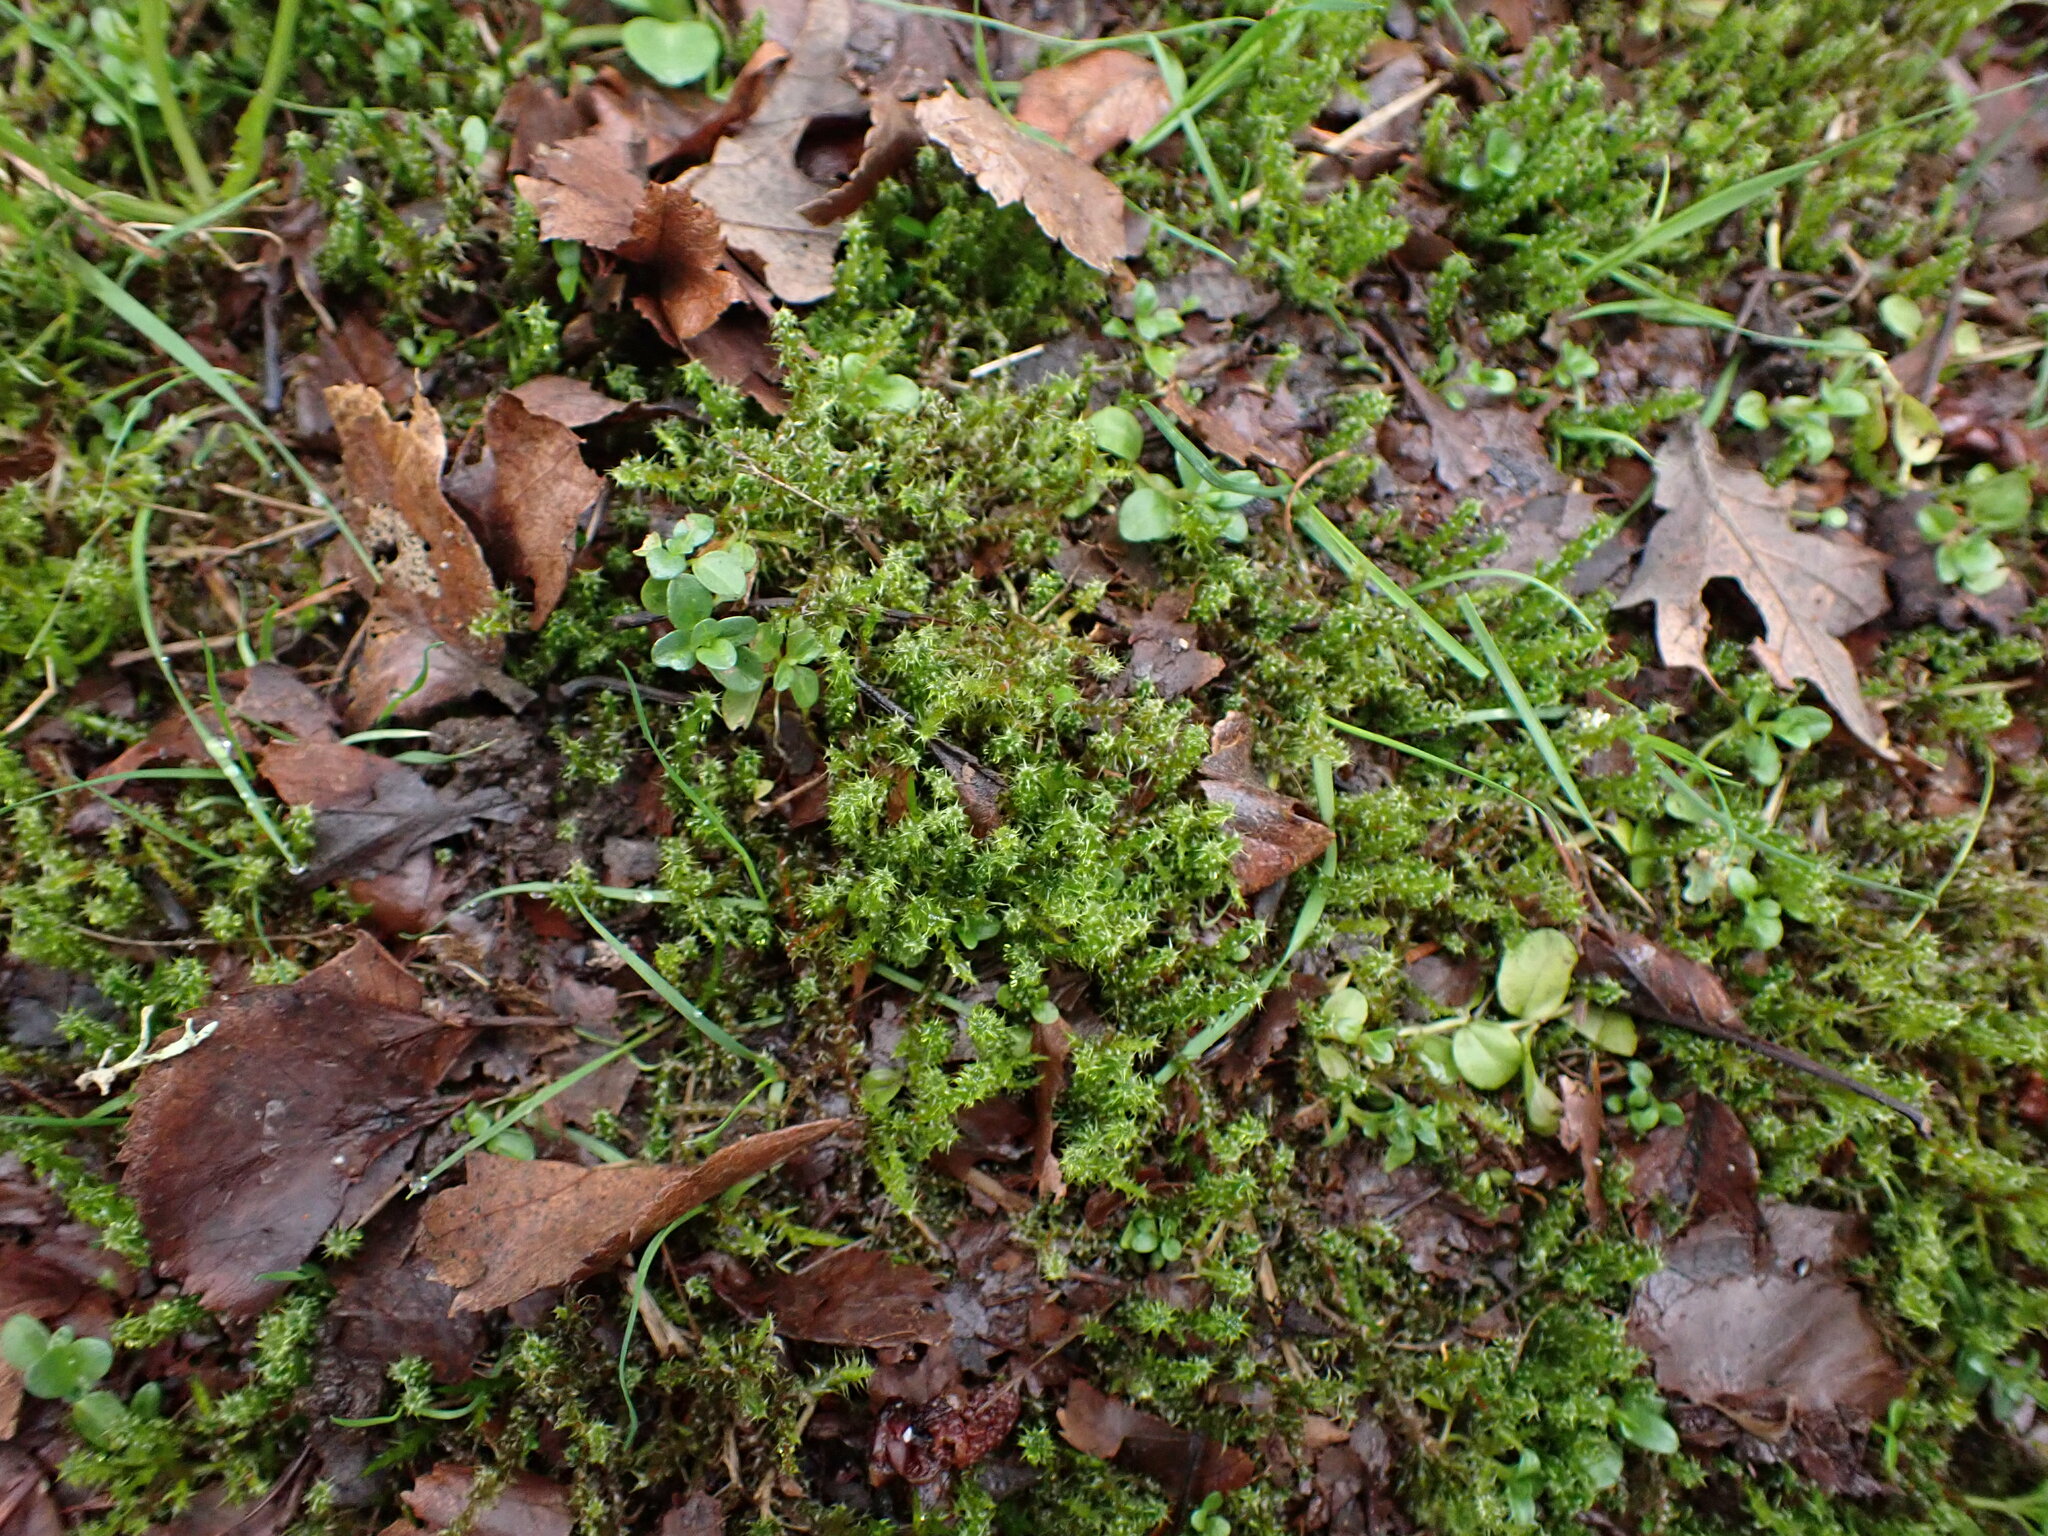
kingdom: Plantae
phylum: Bryophyta
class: Bryopsida
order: Hypnales
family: Hylocomiaceae
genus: Rhytidiadelphus
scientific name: Rhytidiadelphus squarrosus
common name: Springy turf-moss
